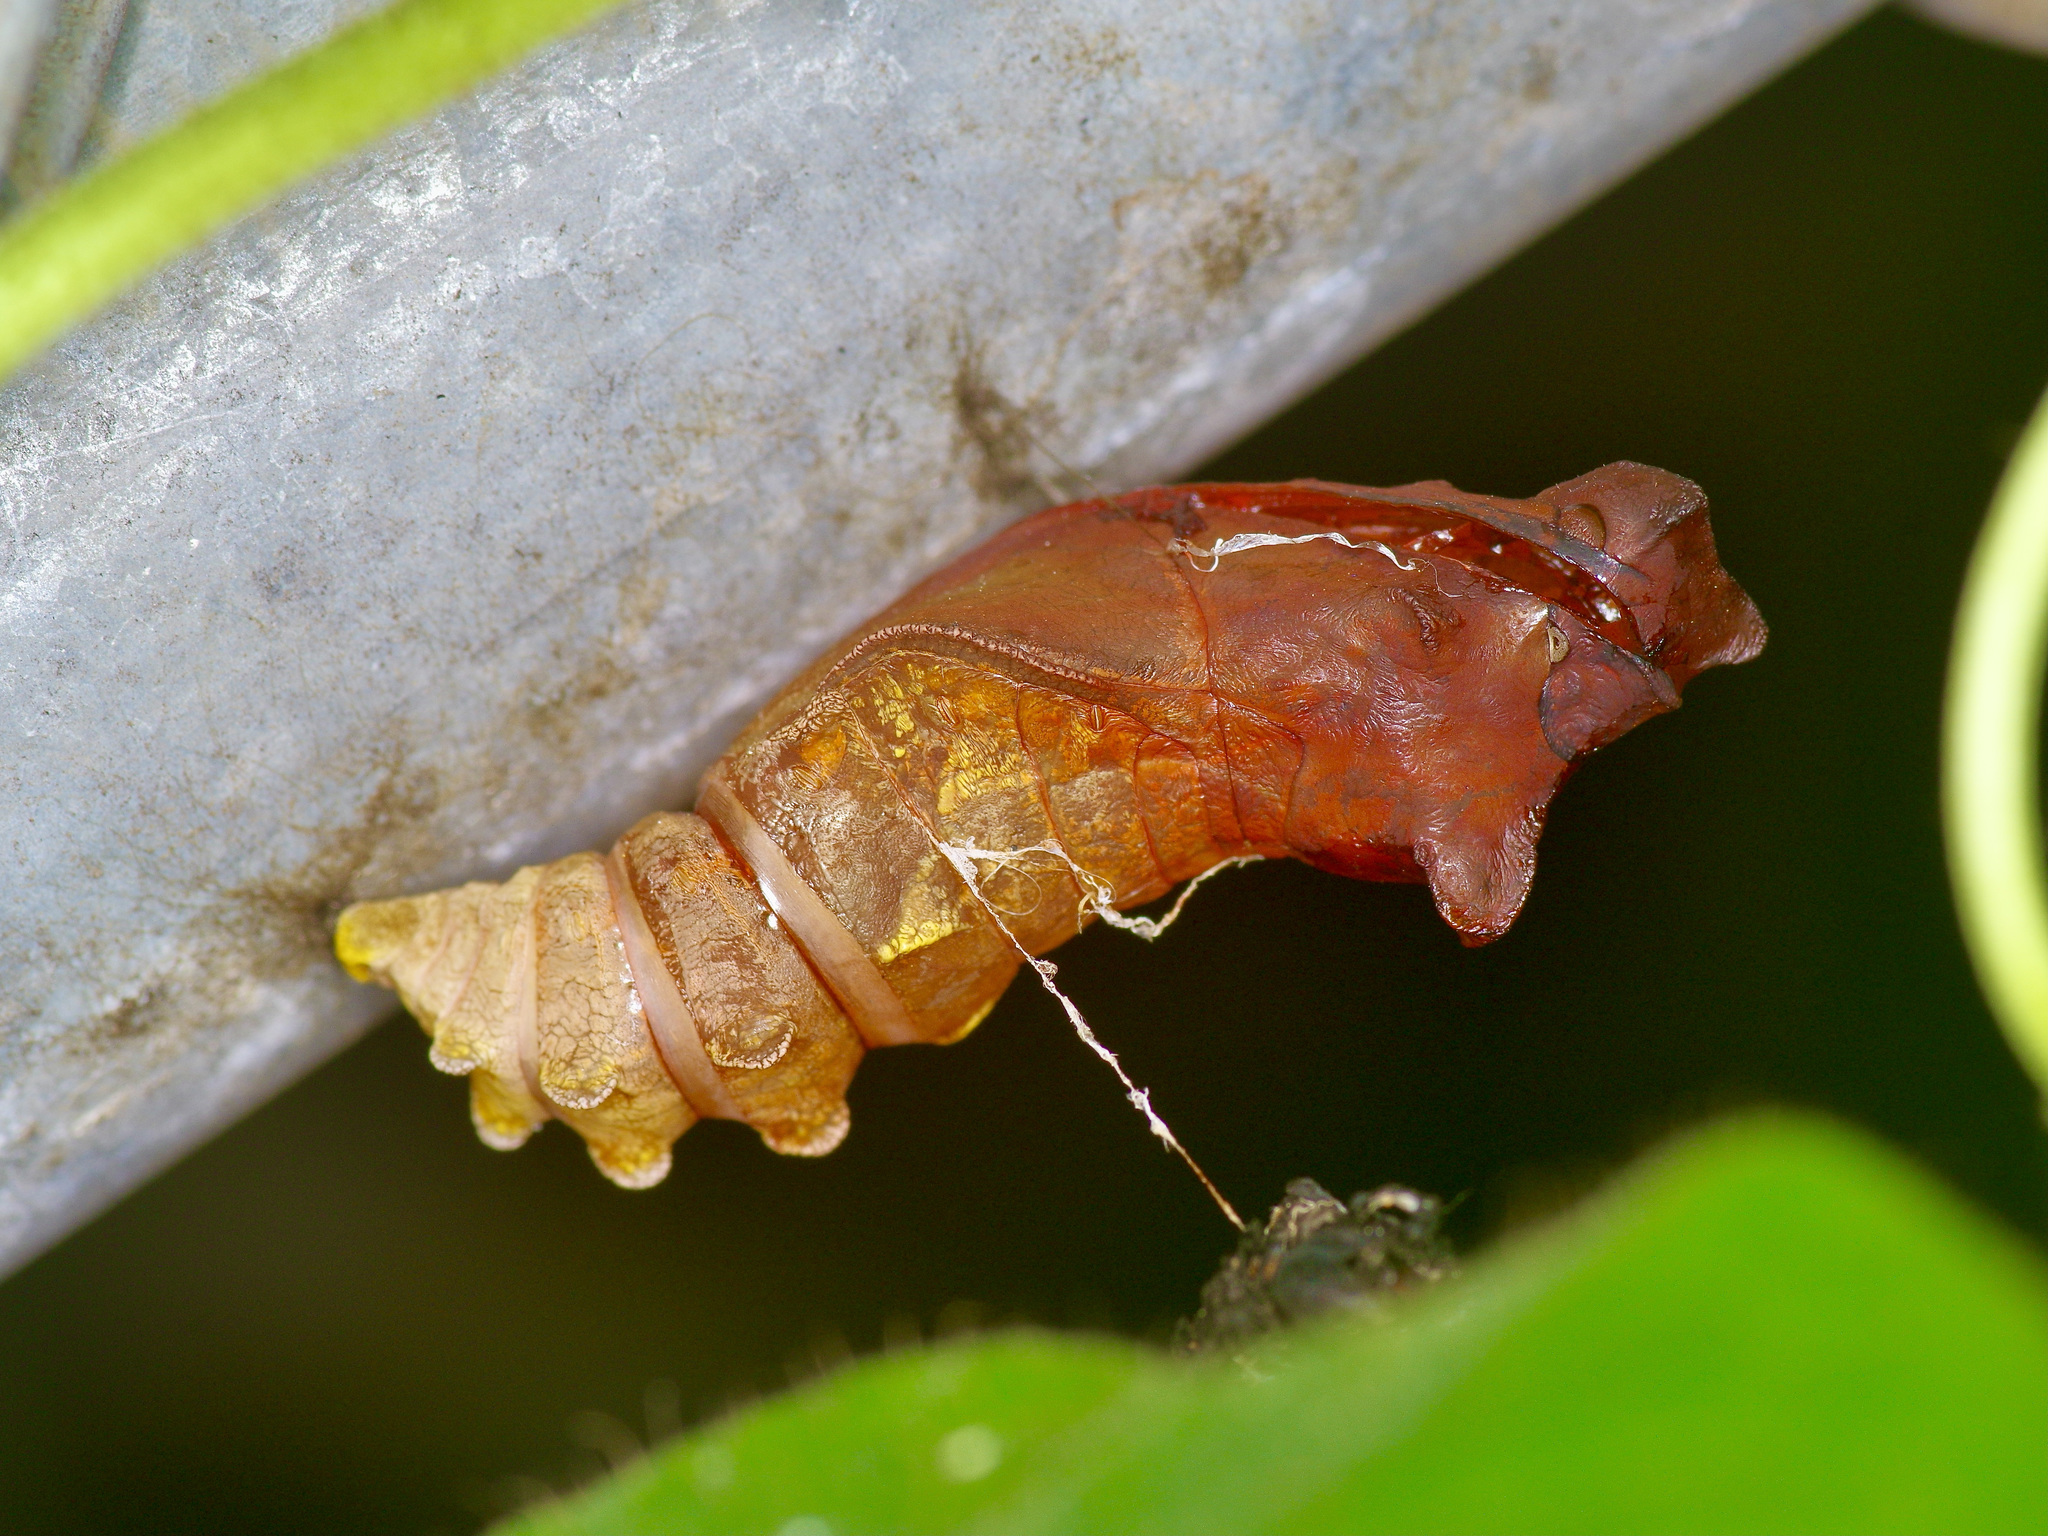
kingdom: Animalia
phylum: Arthropoda
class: Insecta
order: Lepidoptera
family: Papilionidae
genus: Battus
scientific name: Battus philenor
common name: Pipevine swallowtail
